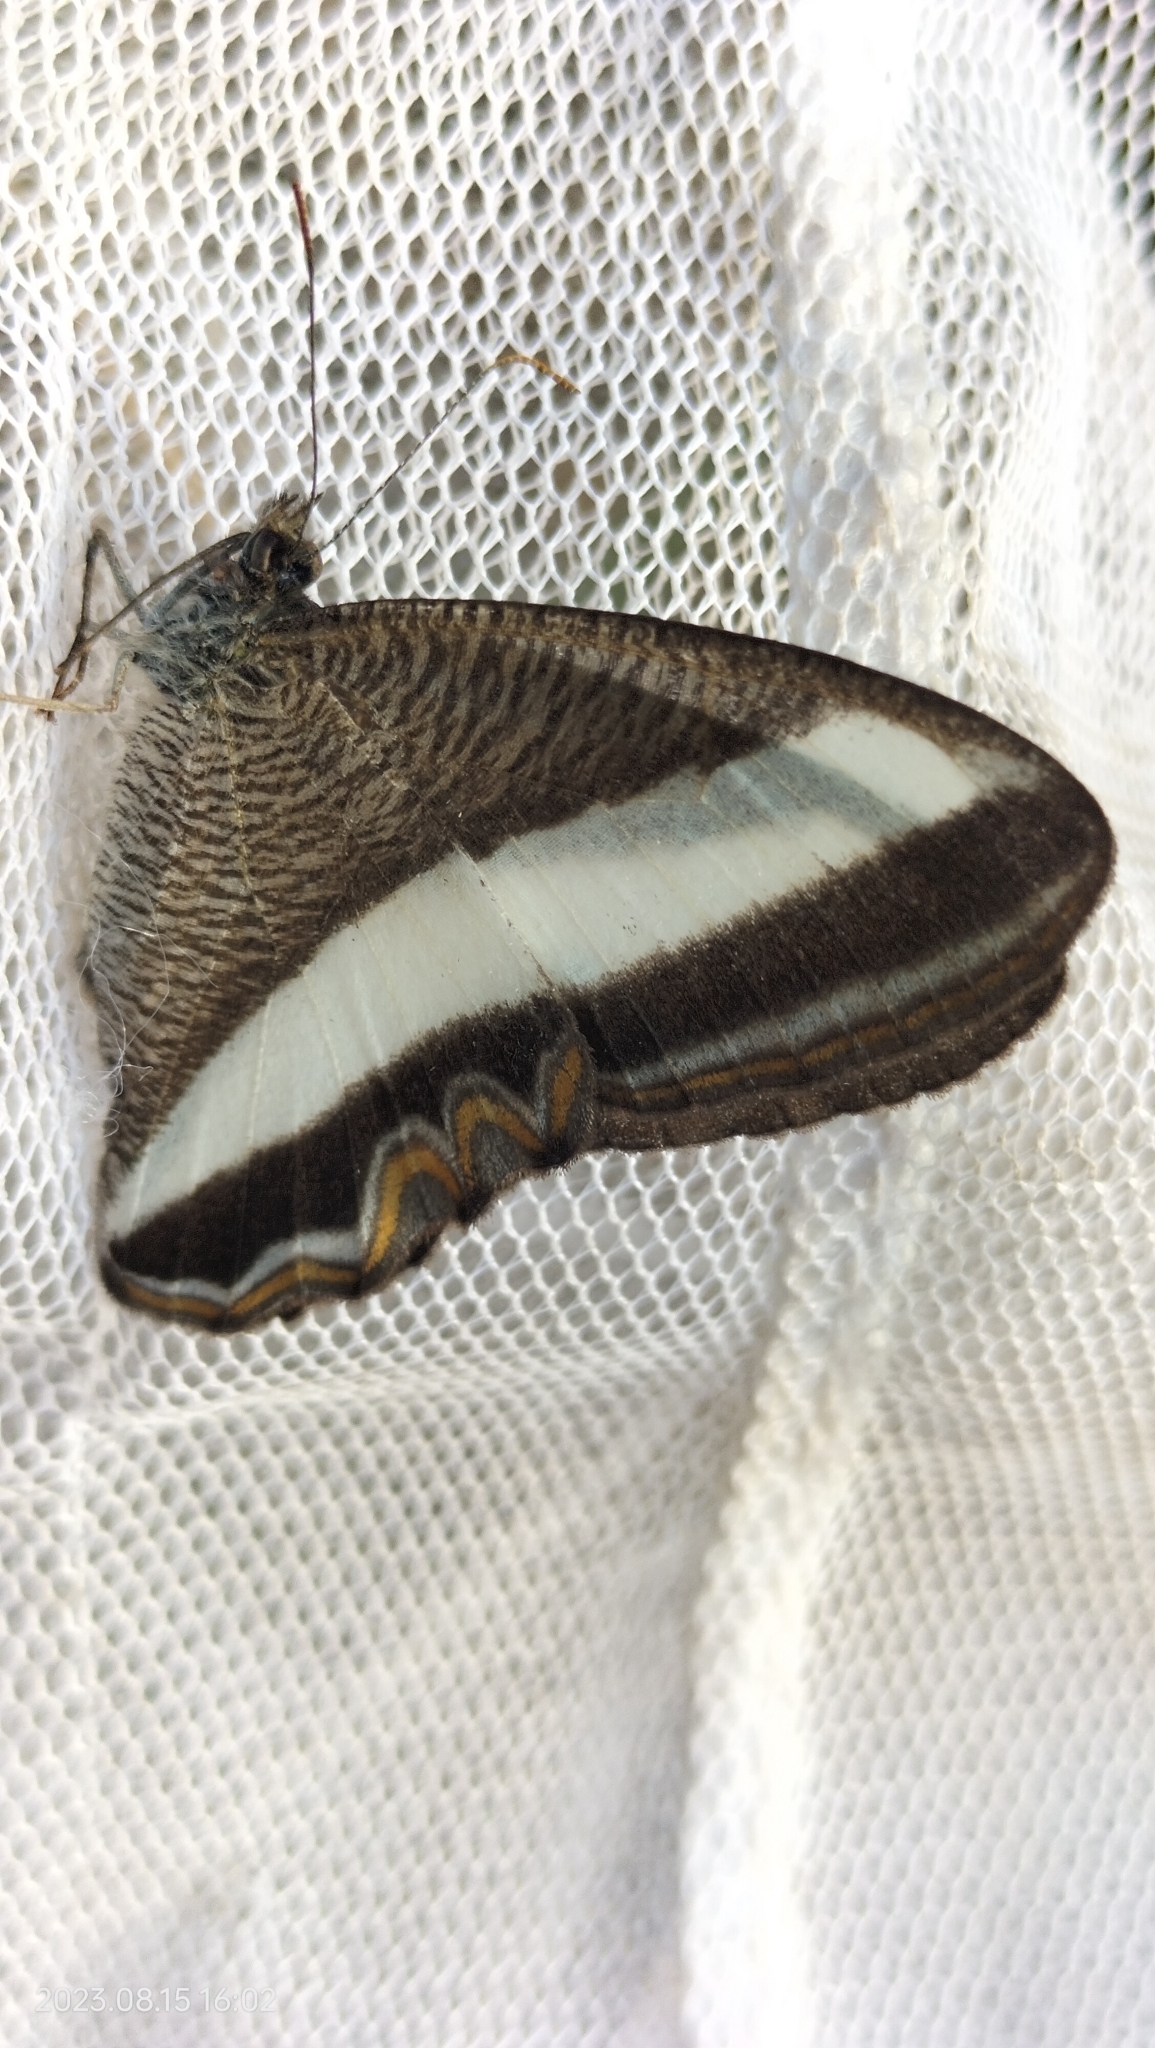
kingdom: Animalia
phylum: Arthropoda
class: Insecta
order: Lepidoptera
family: Nymphalidae
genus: Oressinoma
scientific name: Oressinoma typhla
